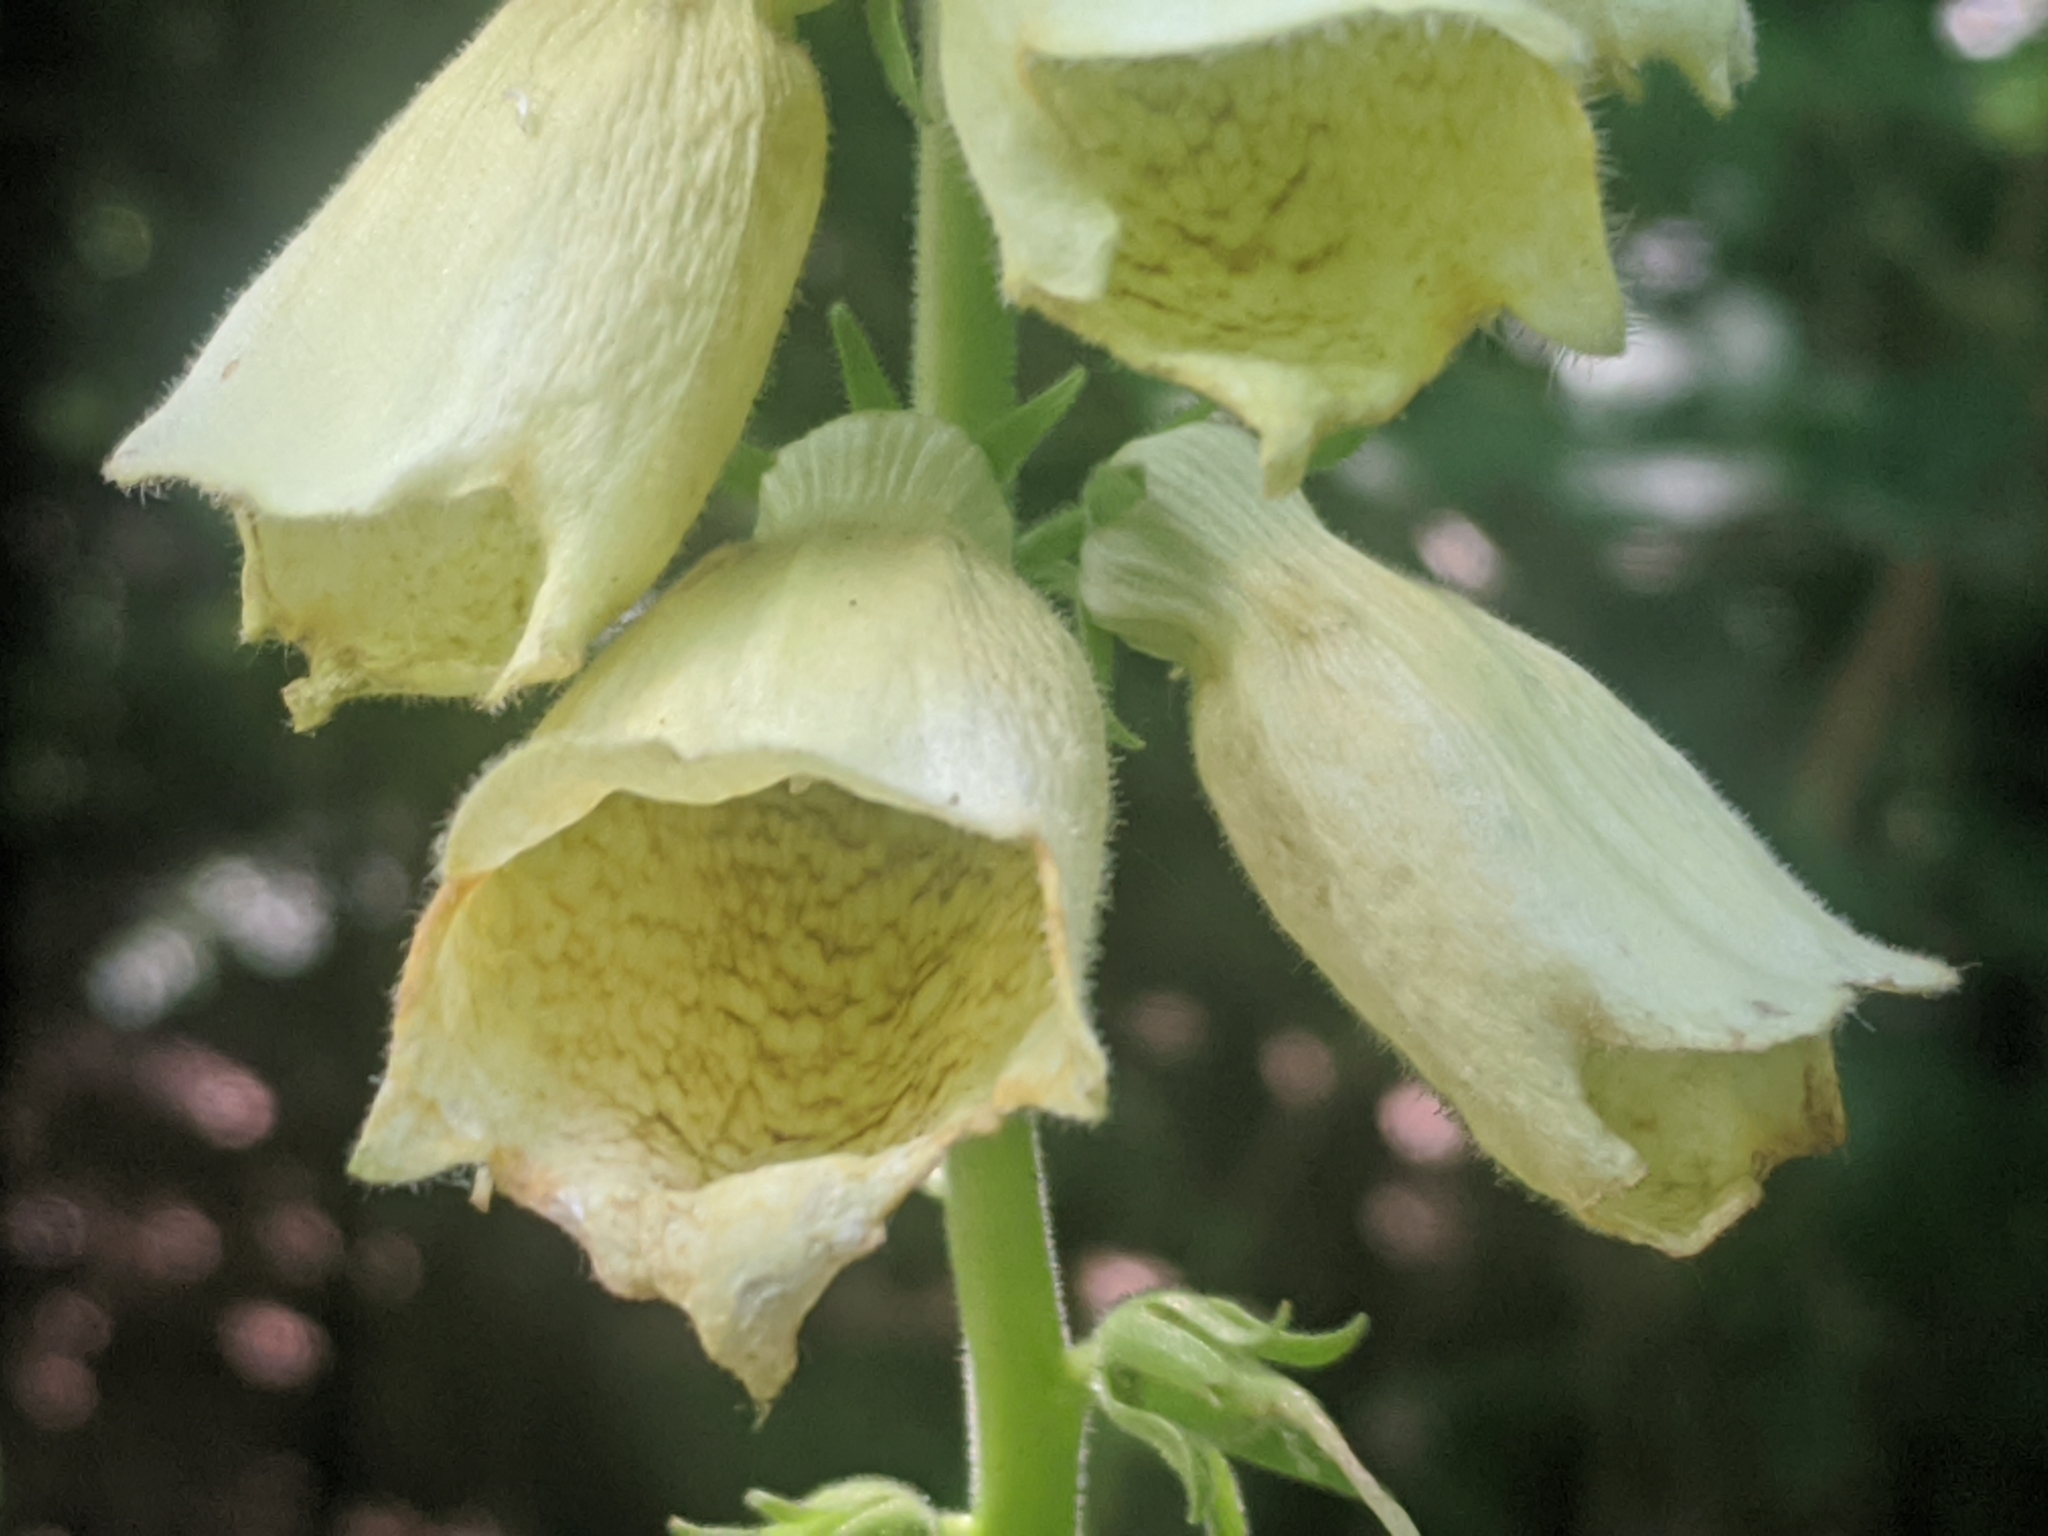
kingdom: Plantae
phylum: Tracheophyta
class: Magnoliopsida
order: Lamiales
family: Plantaginaceae
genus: Digitalis
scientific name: Digitalis grandiflora
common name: Yellow foxglove
